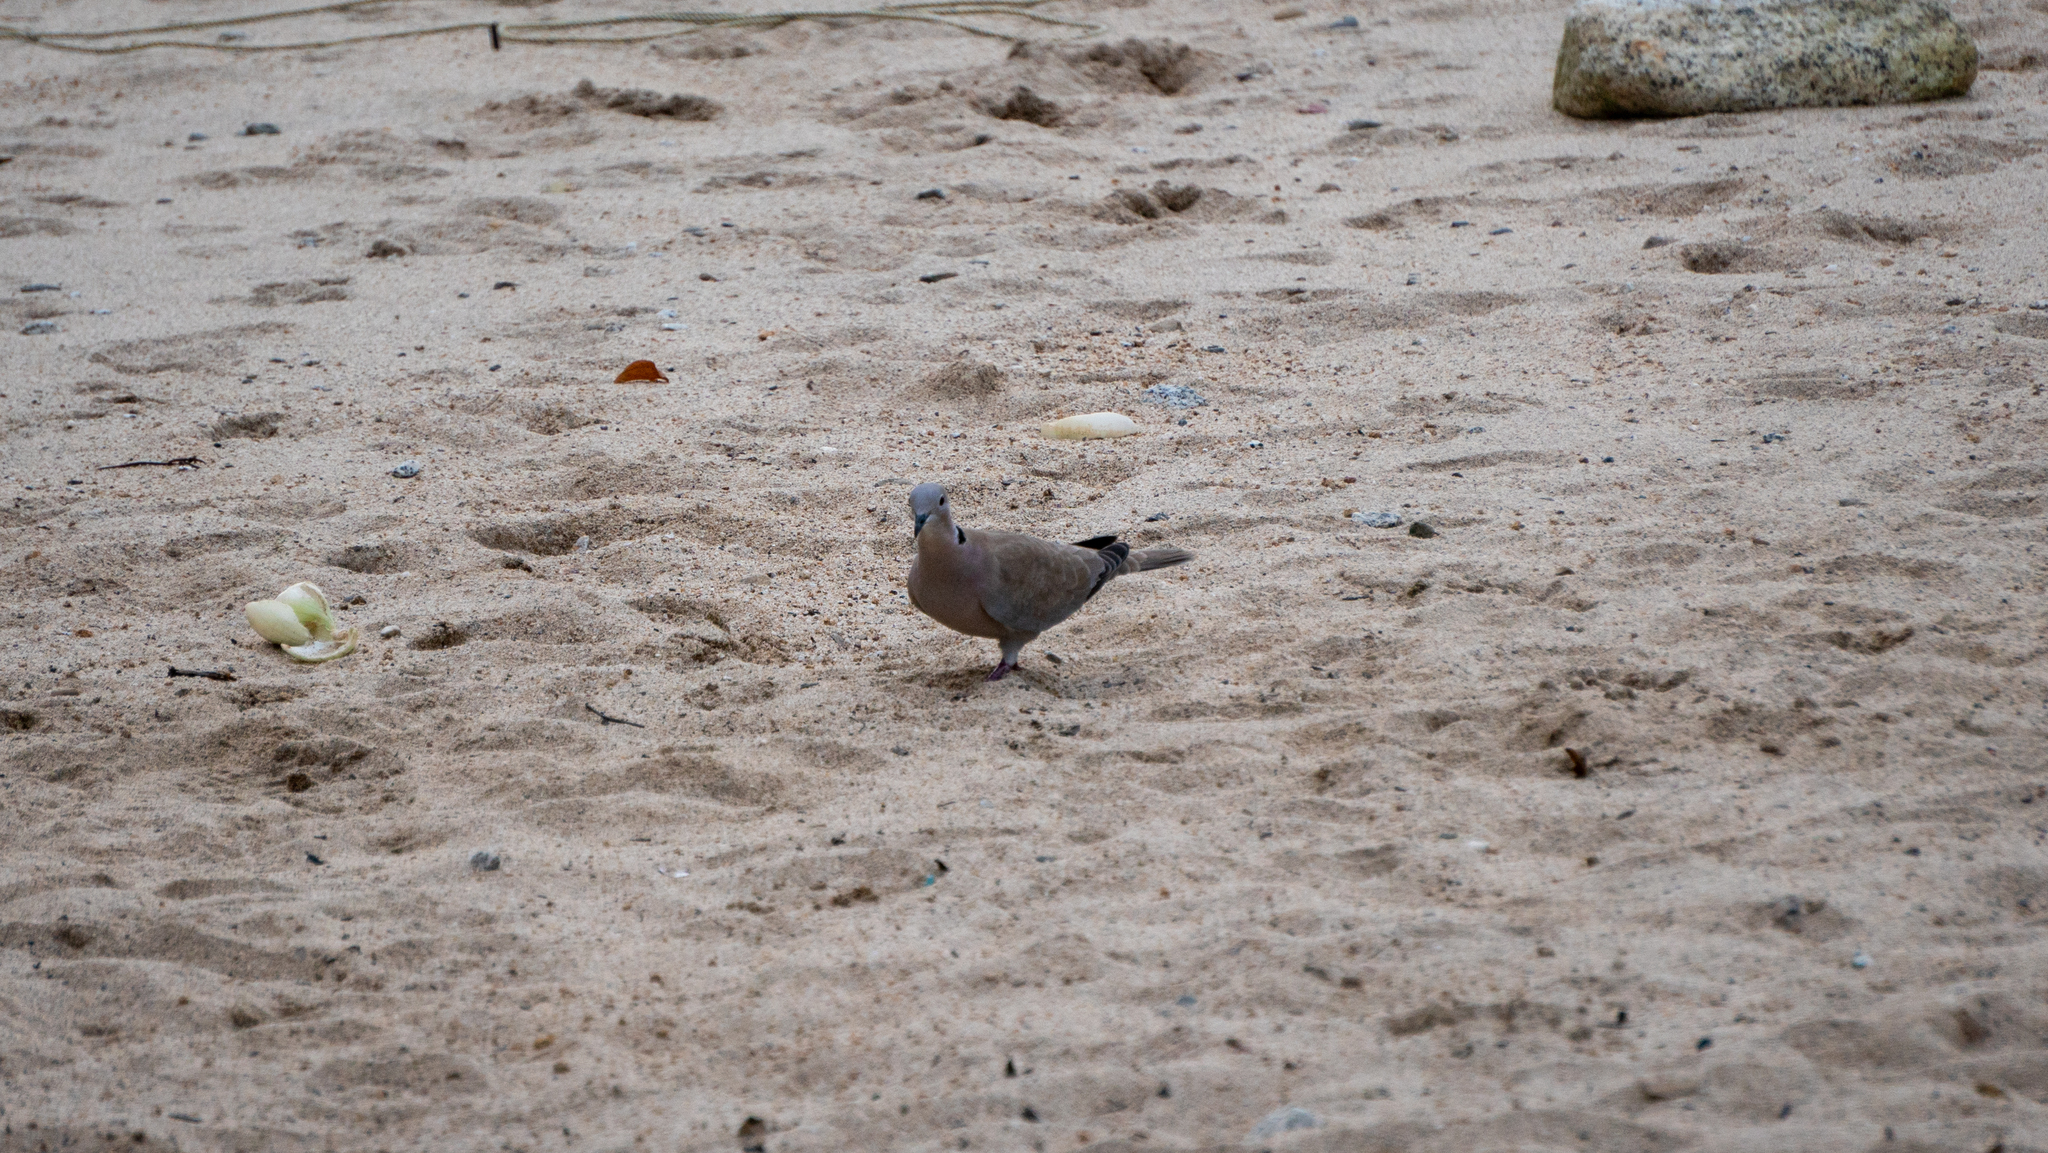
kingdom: Animalia
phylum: Chordata
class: Aves
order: Columbiformes
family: Columbidae
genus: Streptopelia
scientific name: Streptopelia decaocto
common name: Eurasian collared dove
